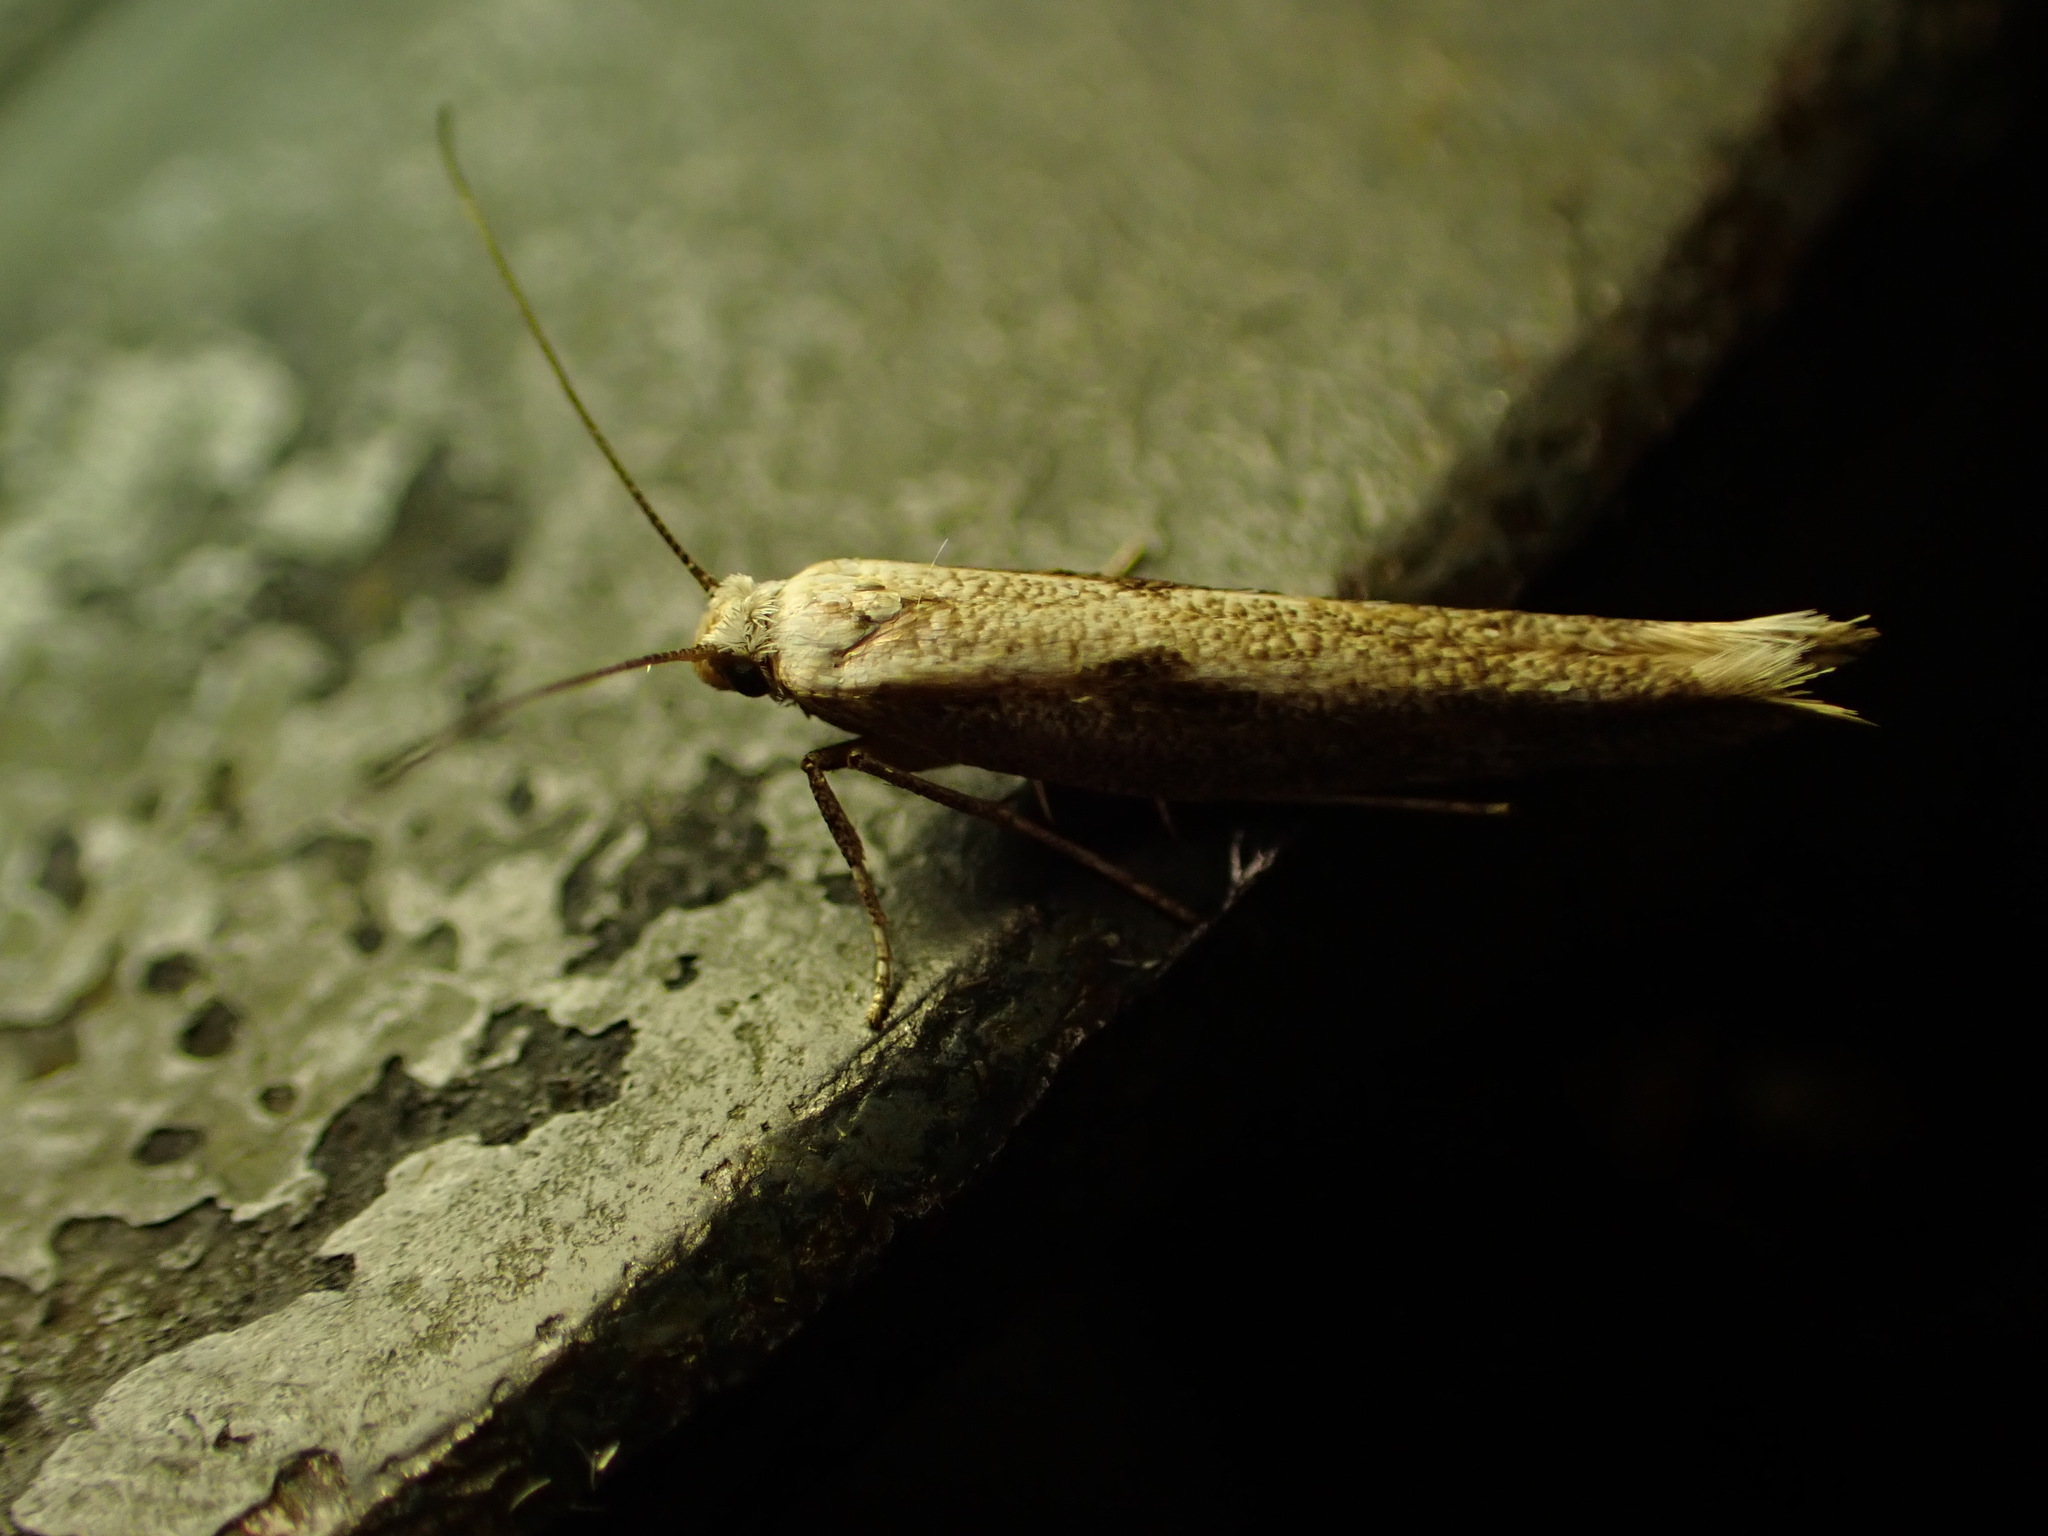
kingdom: Animalia
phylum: Arthropoda
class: Insecta
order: Lepidoptera
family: Gelechiidae
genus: Kiwaia
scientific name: Kiwaia parvula
